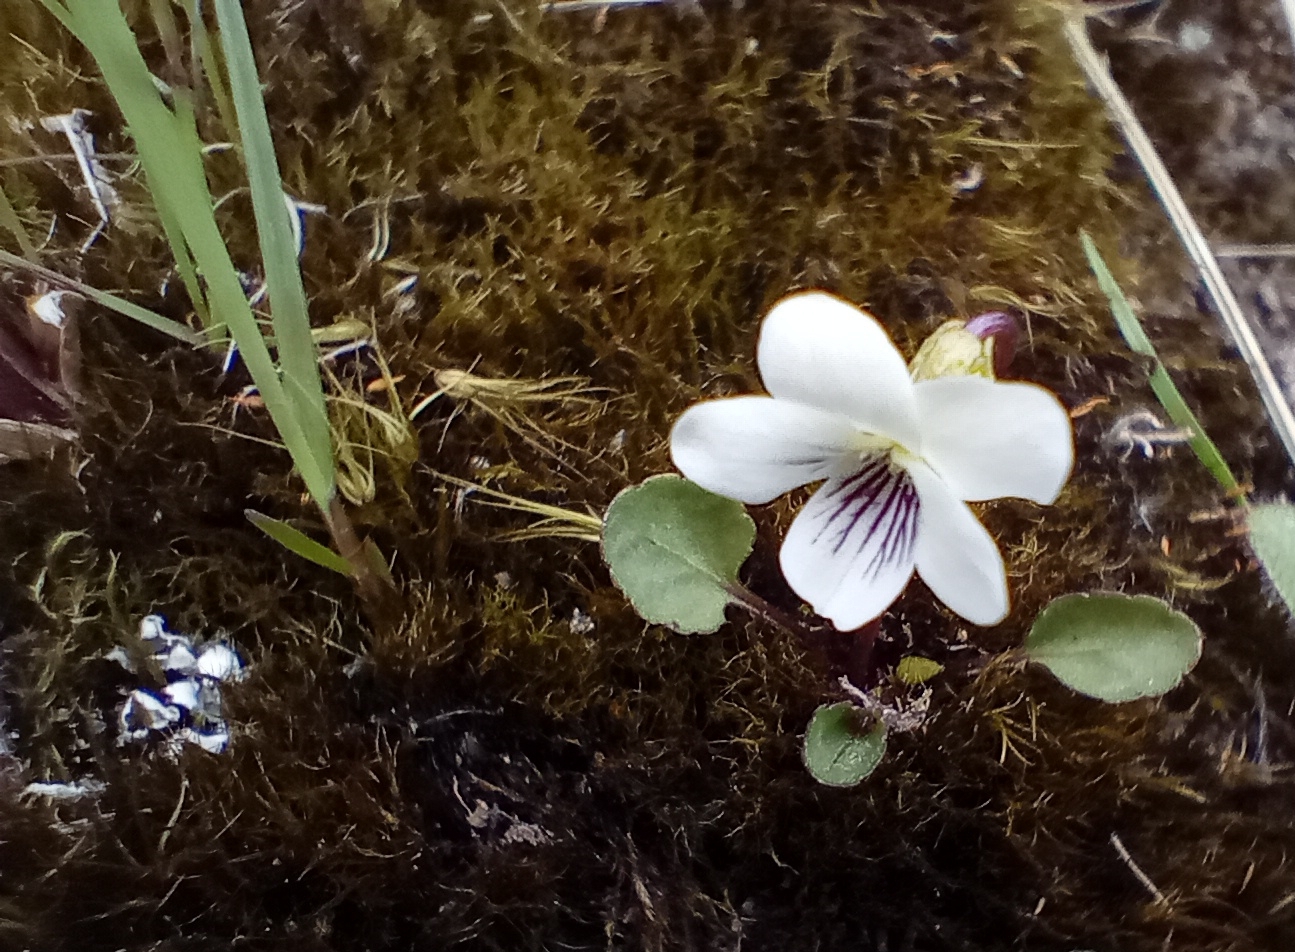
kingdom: Plantae
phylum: Tracheophyta
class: Magnoliopsida
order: Malpighiales
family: Violaceae
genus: Viola
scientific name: Viola cunninghamii
